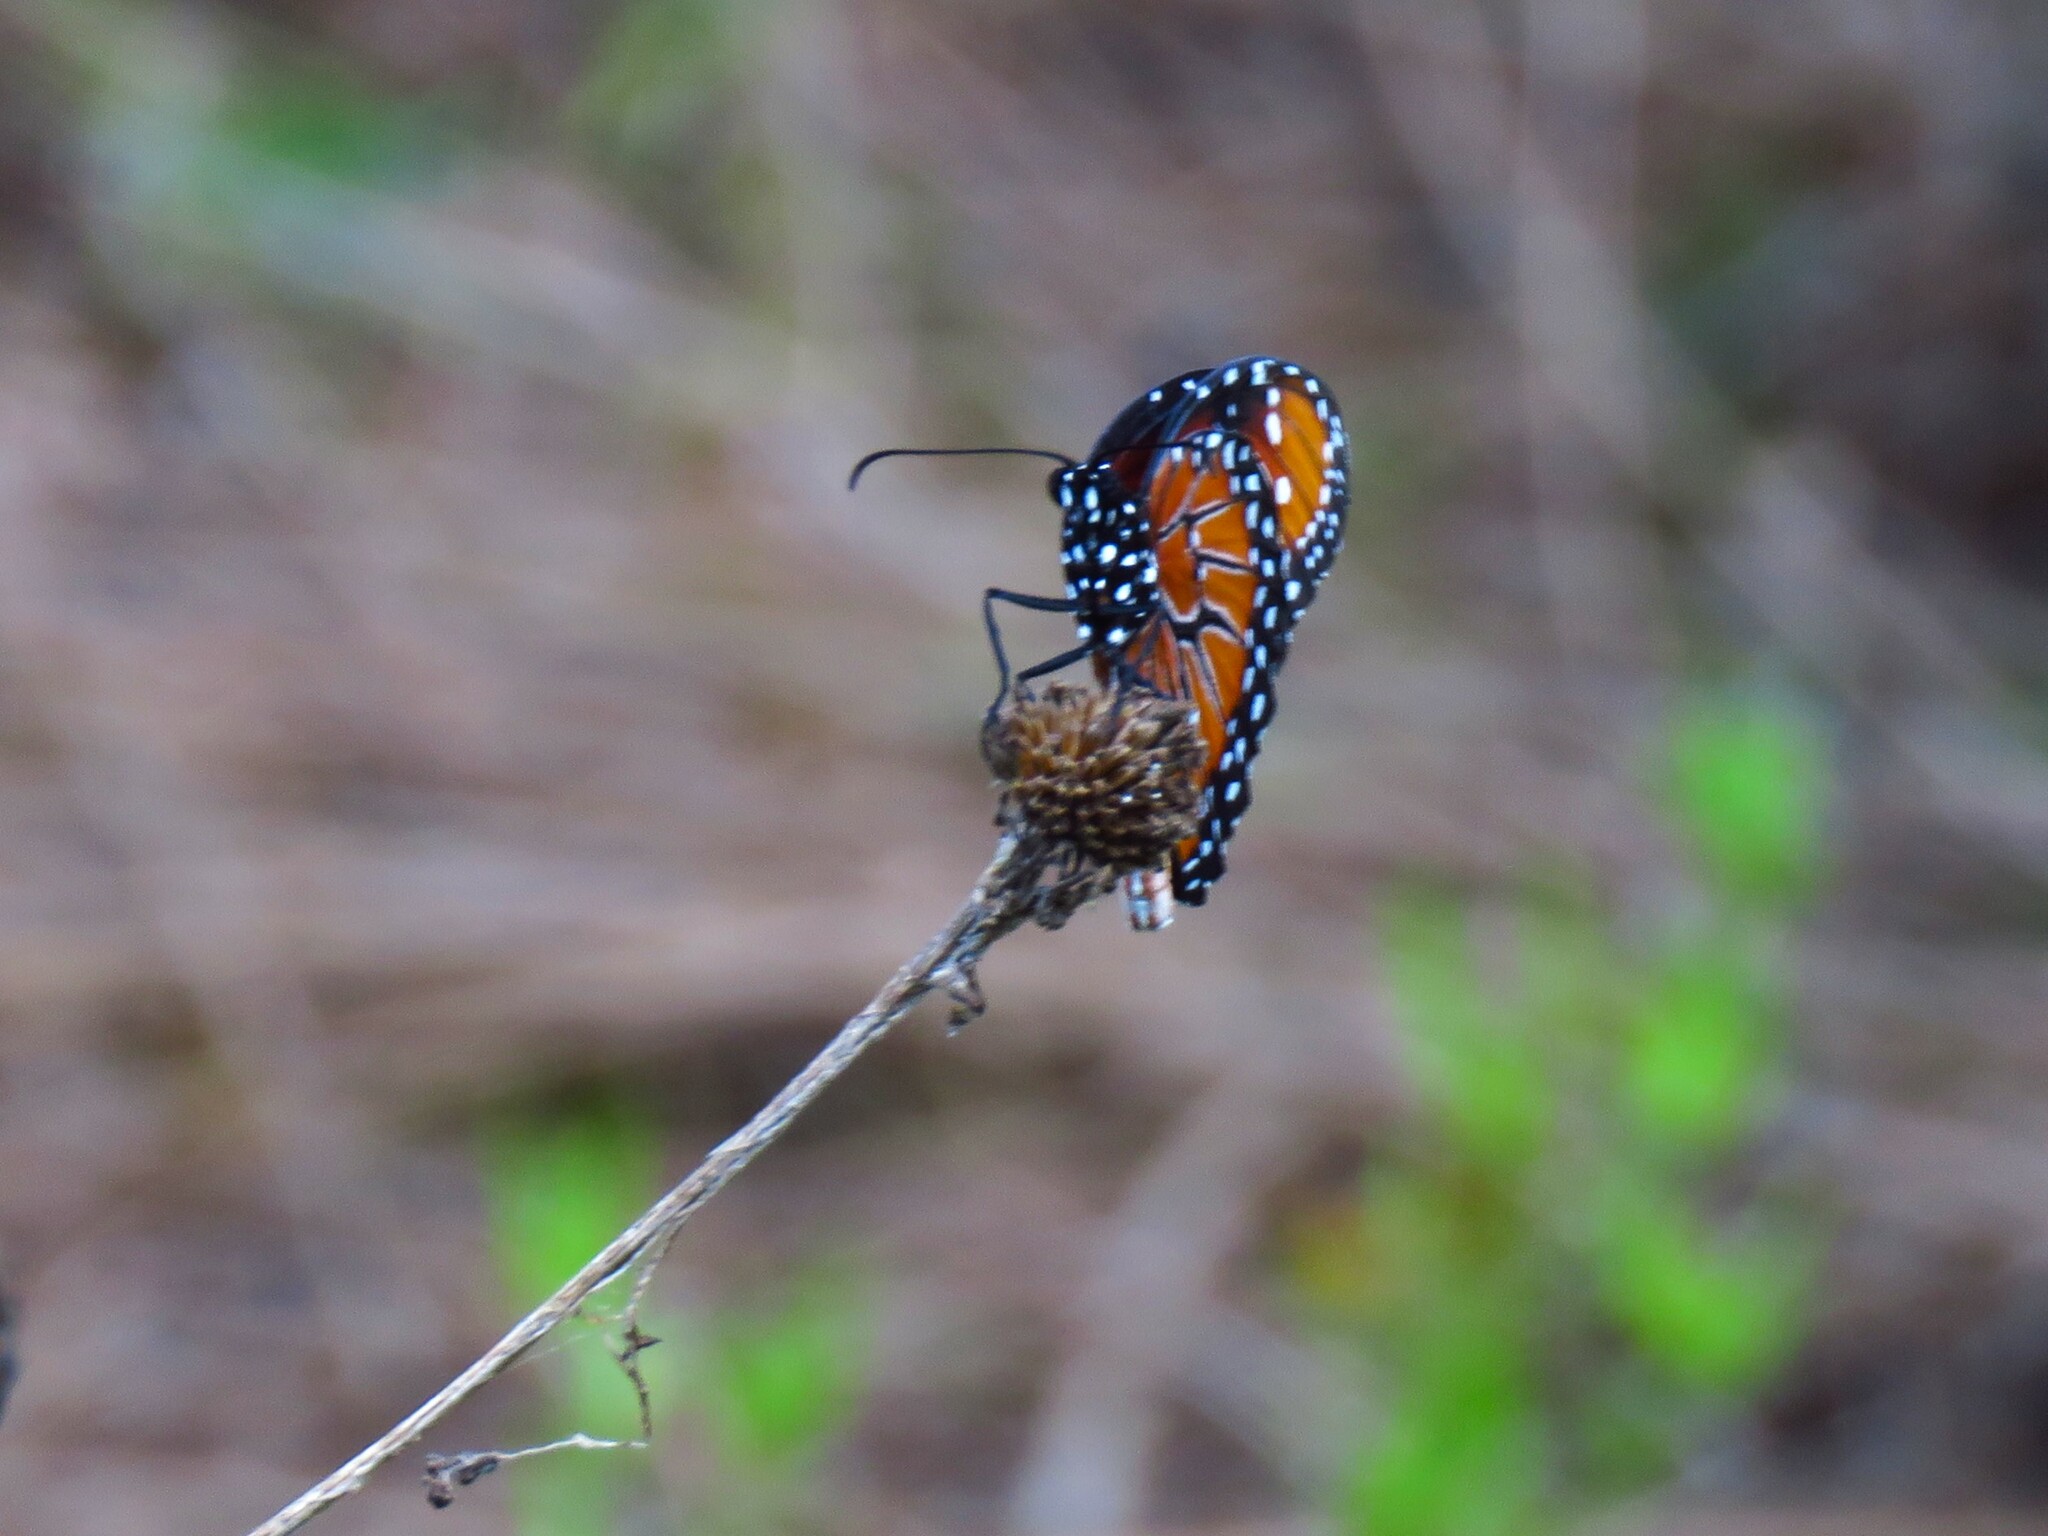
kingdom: Animalia
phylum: Arthropoda
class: Insecta
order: Lepidoptera
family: Nymphalidae
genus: Danaus
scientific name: Danaus gilippus
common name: Queen
